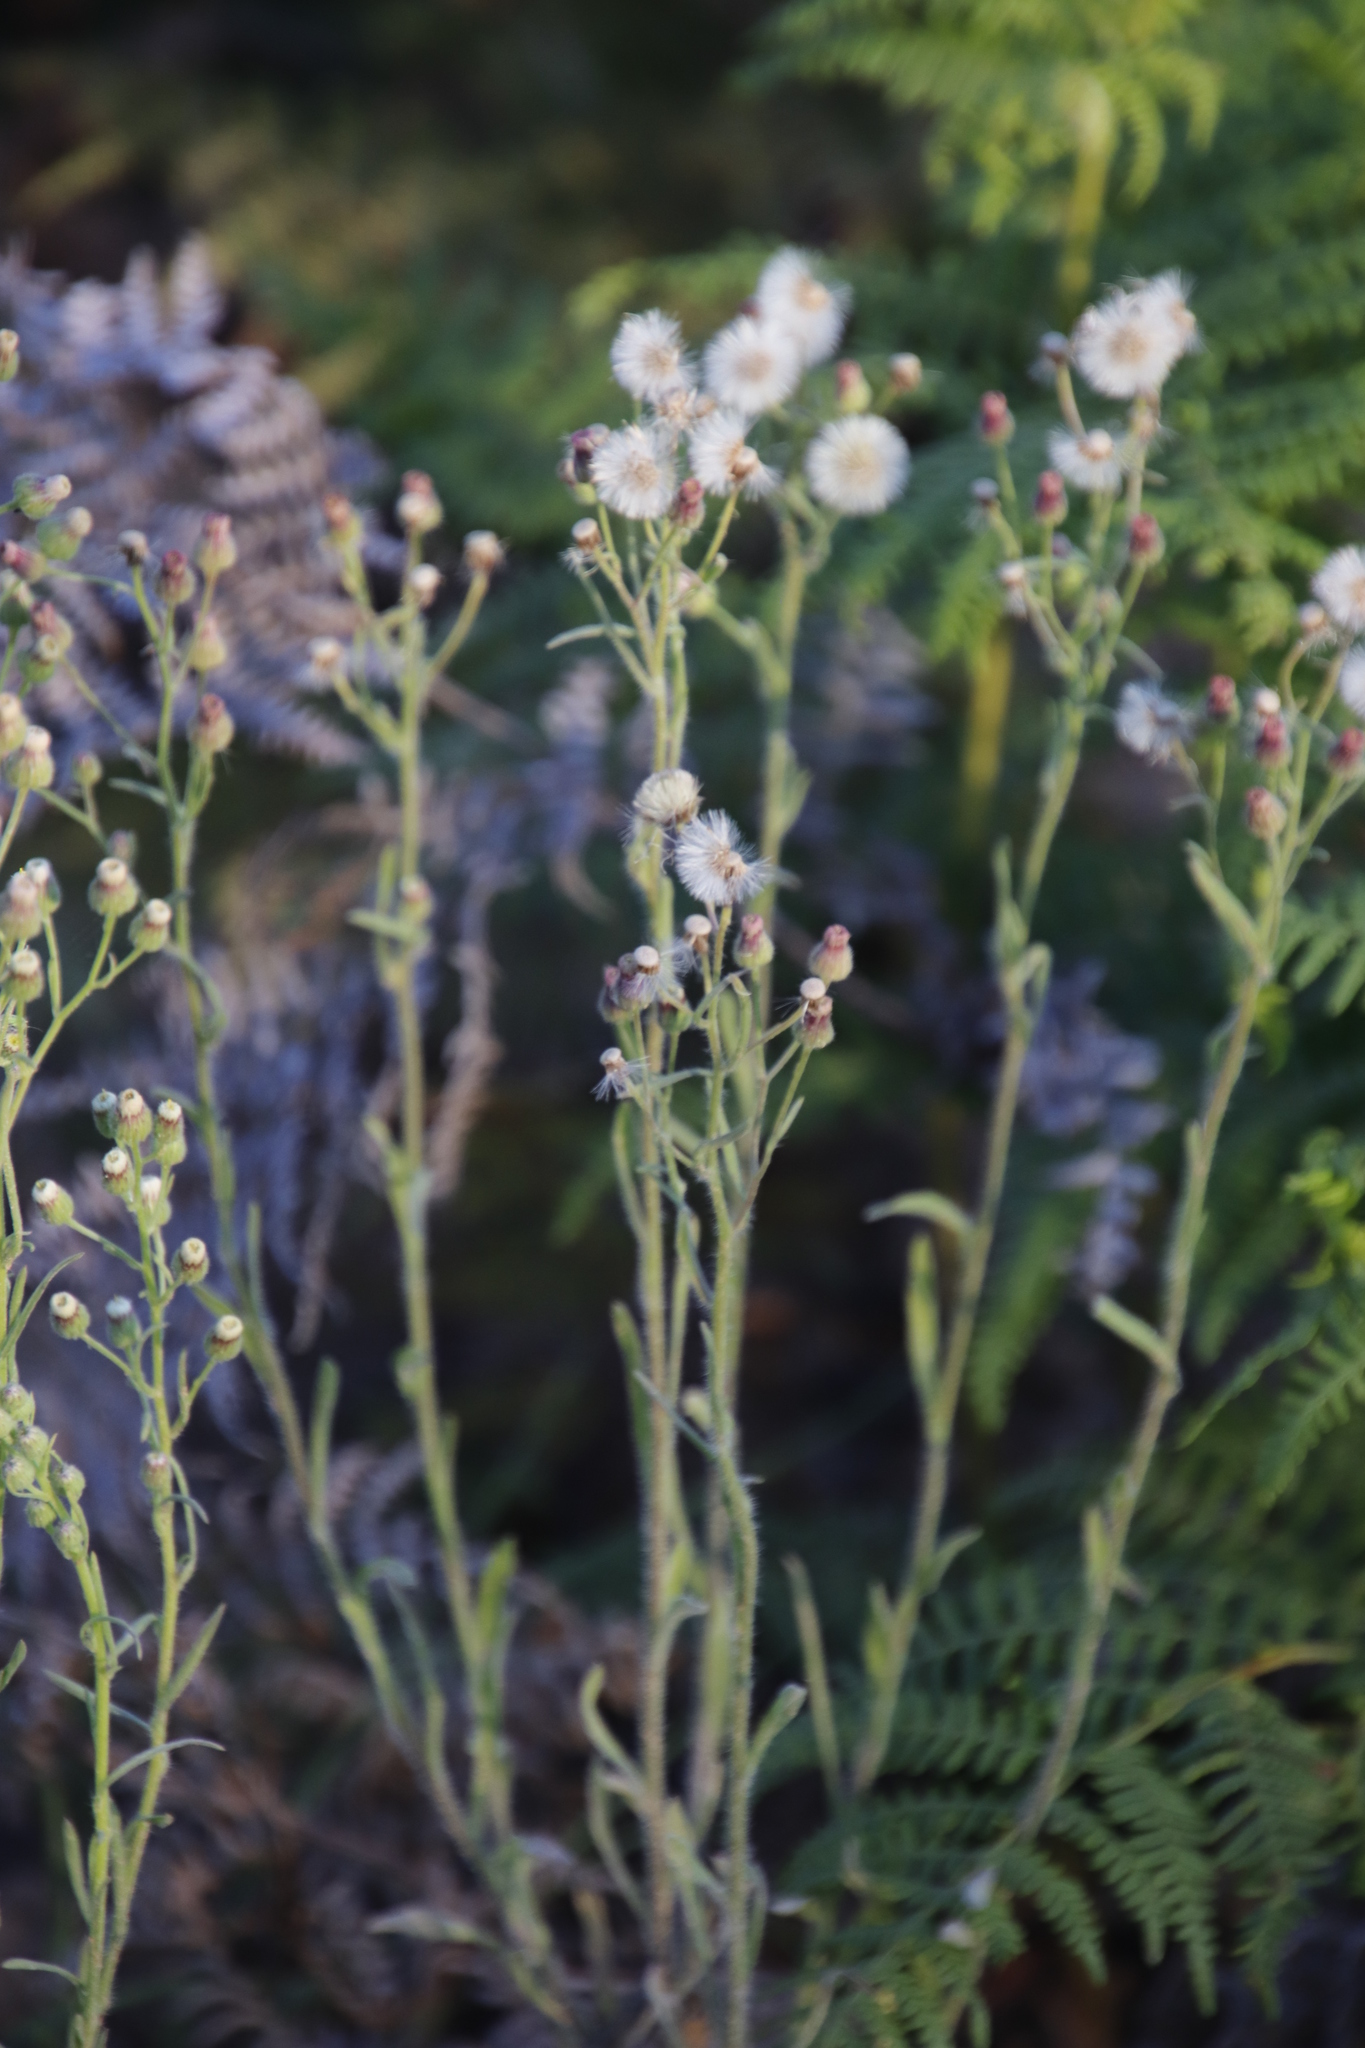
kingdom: Plantae
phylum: Tracheophyta
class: Magnoliopsida
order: Asterales
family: Asteraceae
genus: Erigeron
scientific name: Erigeron bonariensis
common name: Argentine fleabane
